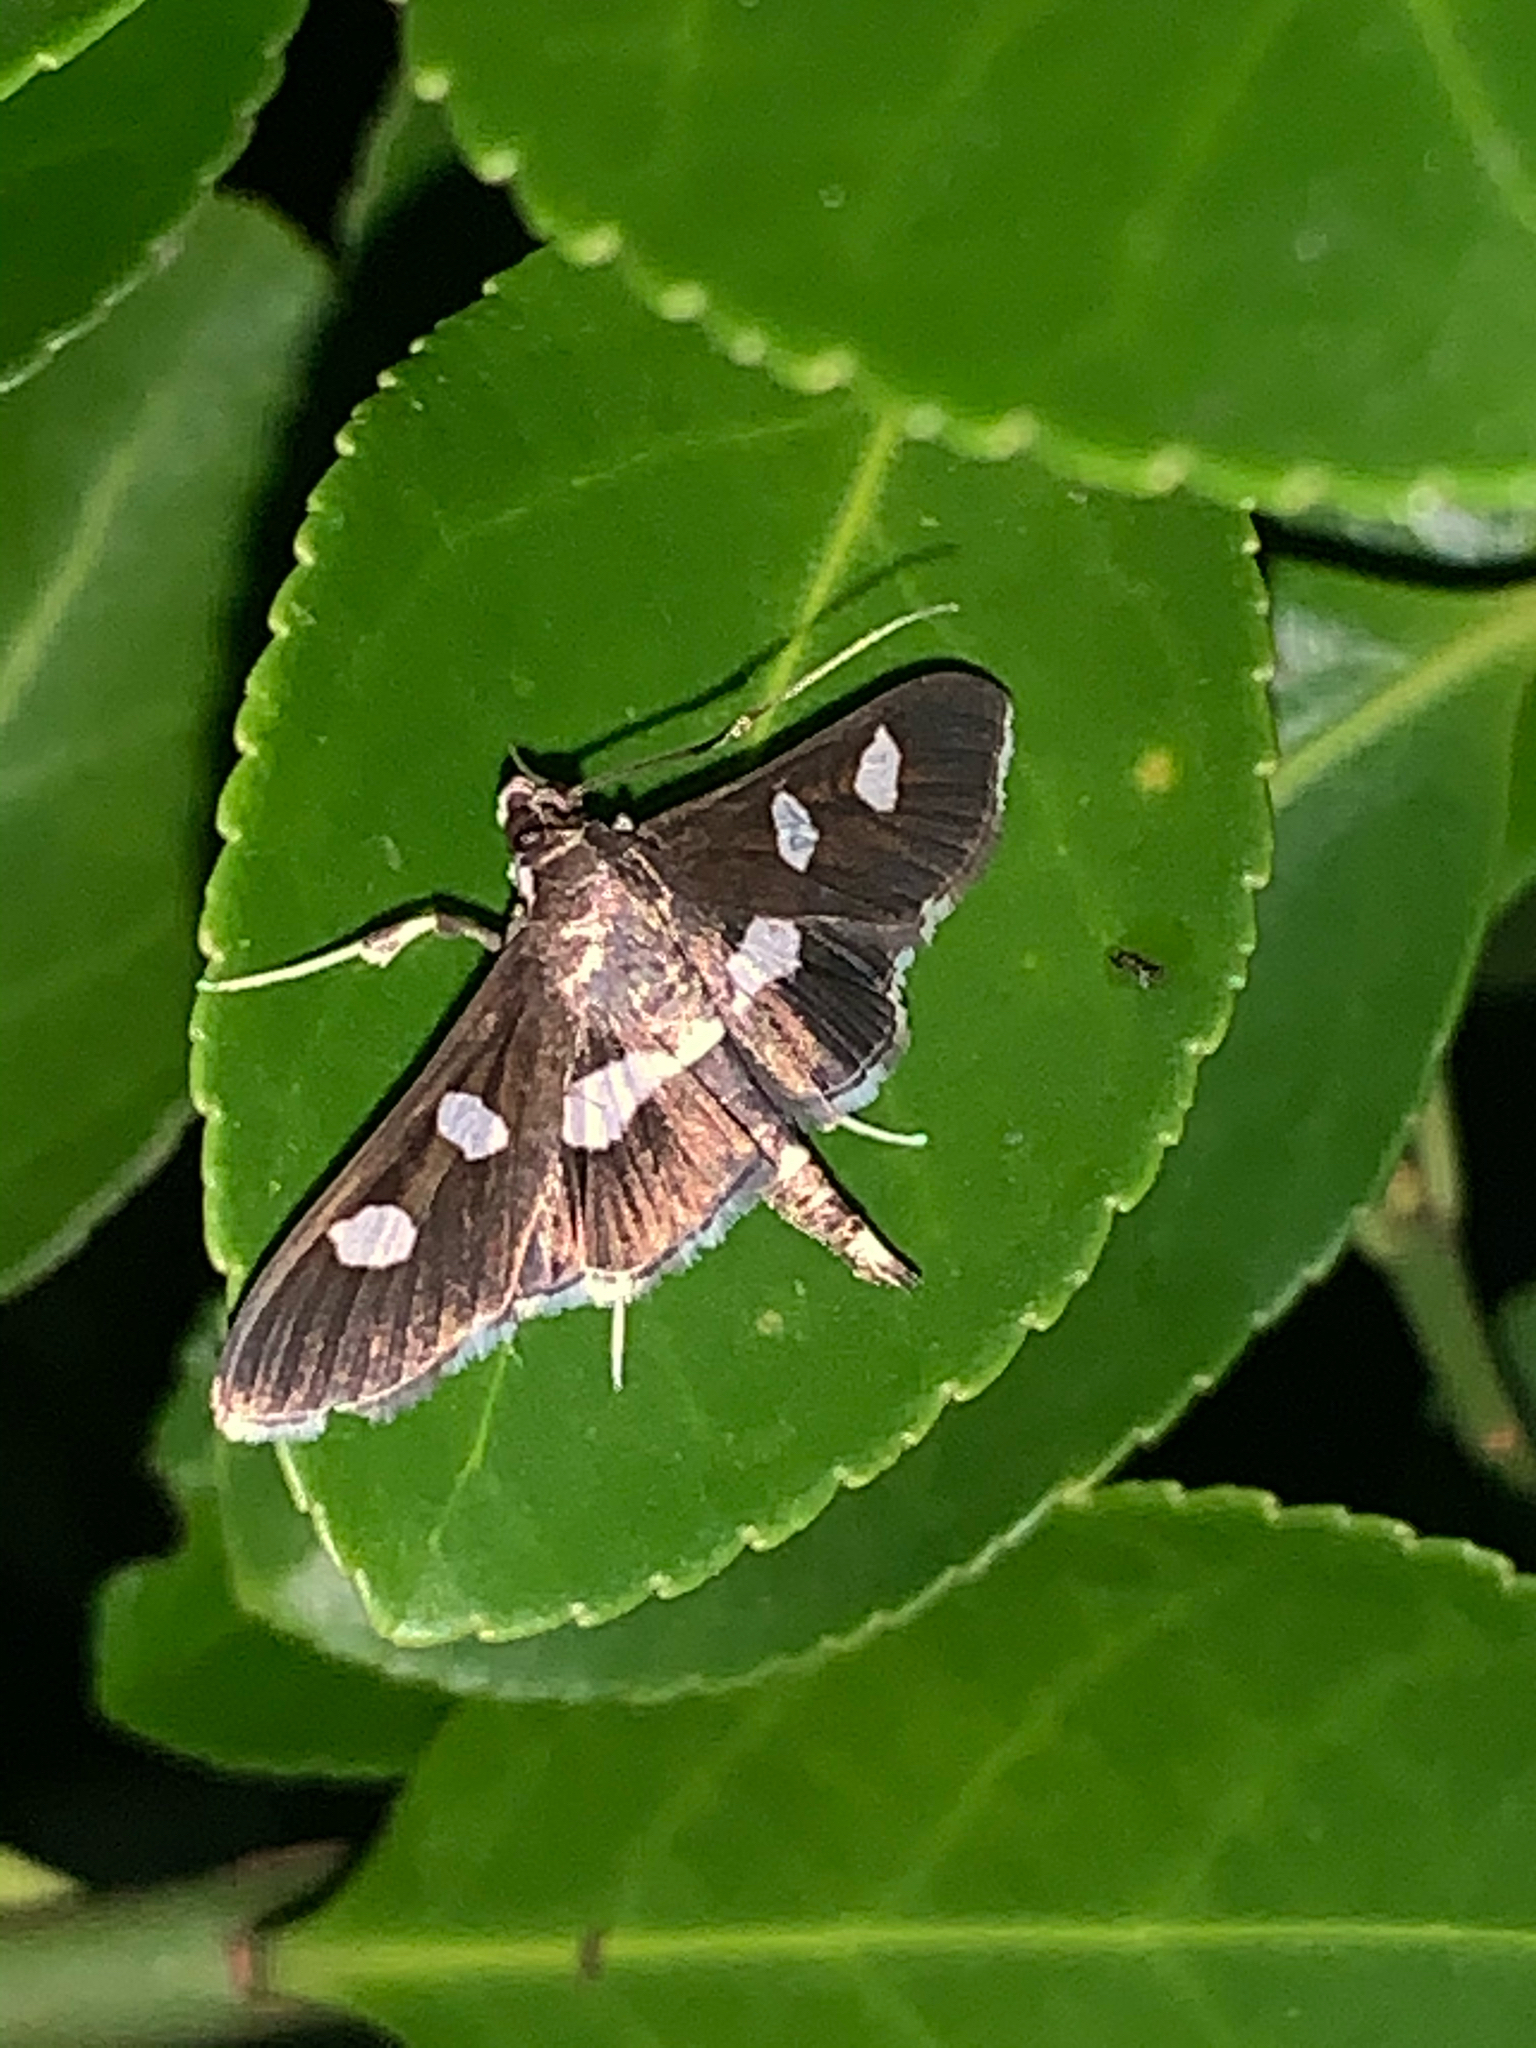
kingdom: Animalia
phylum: Arthropoda
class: Insecta
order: Lepidoptera
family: Crambidae
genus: Desmia
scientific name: Desmia
